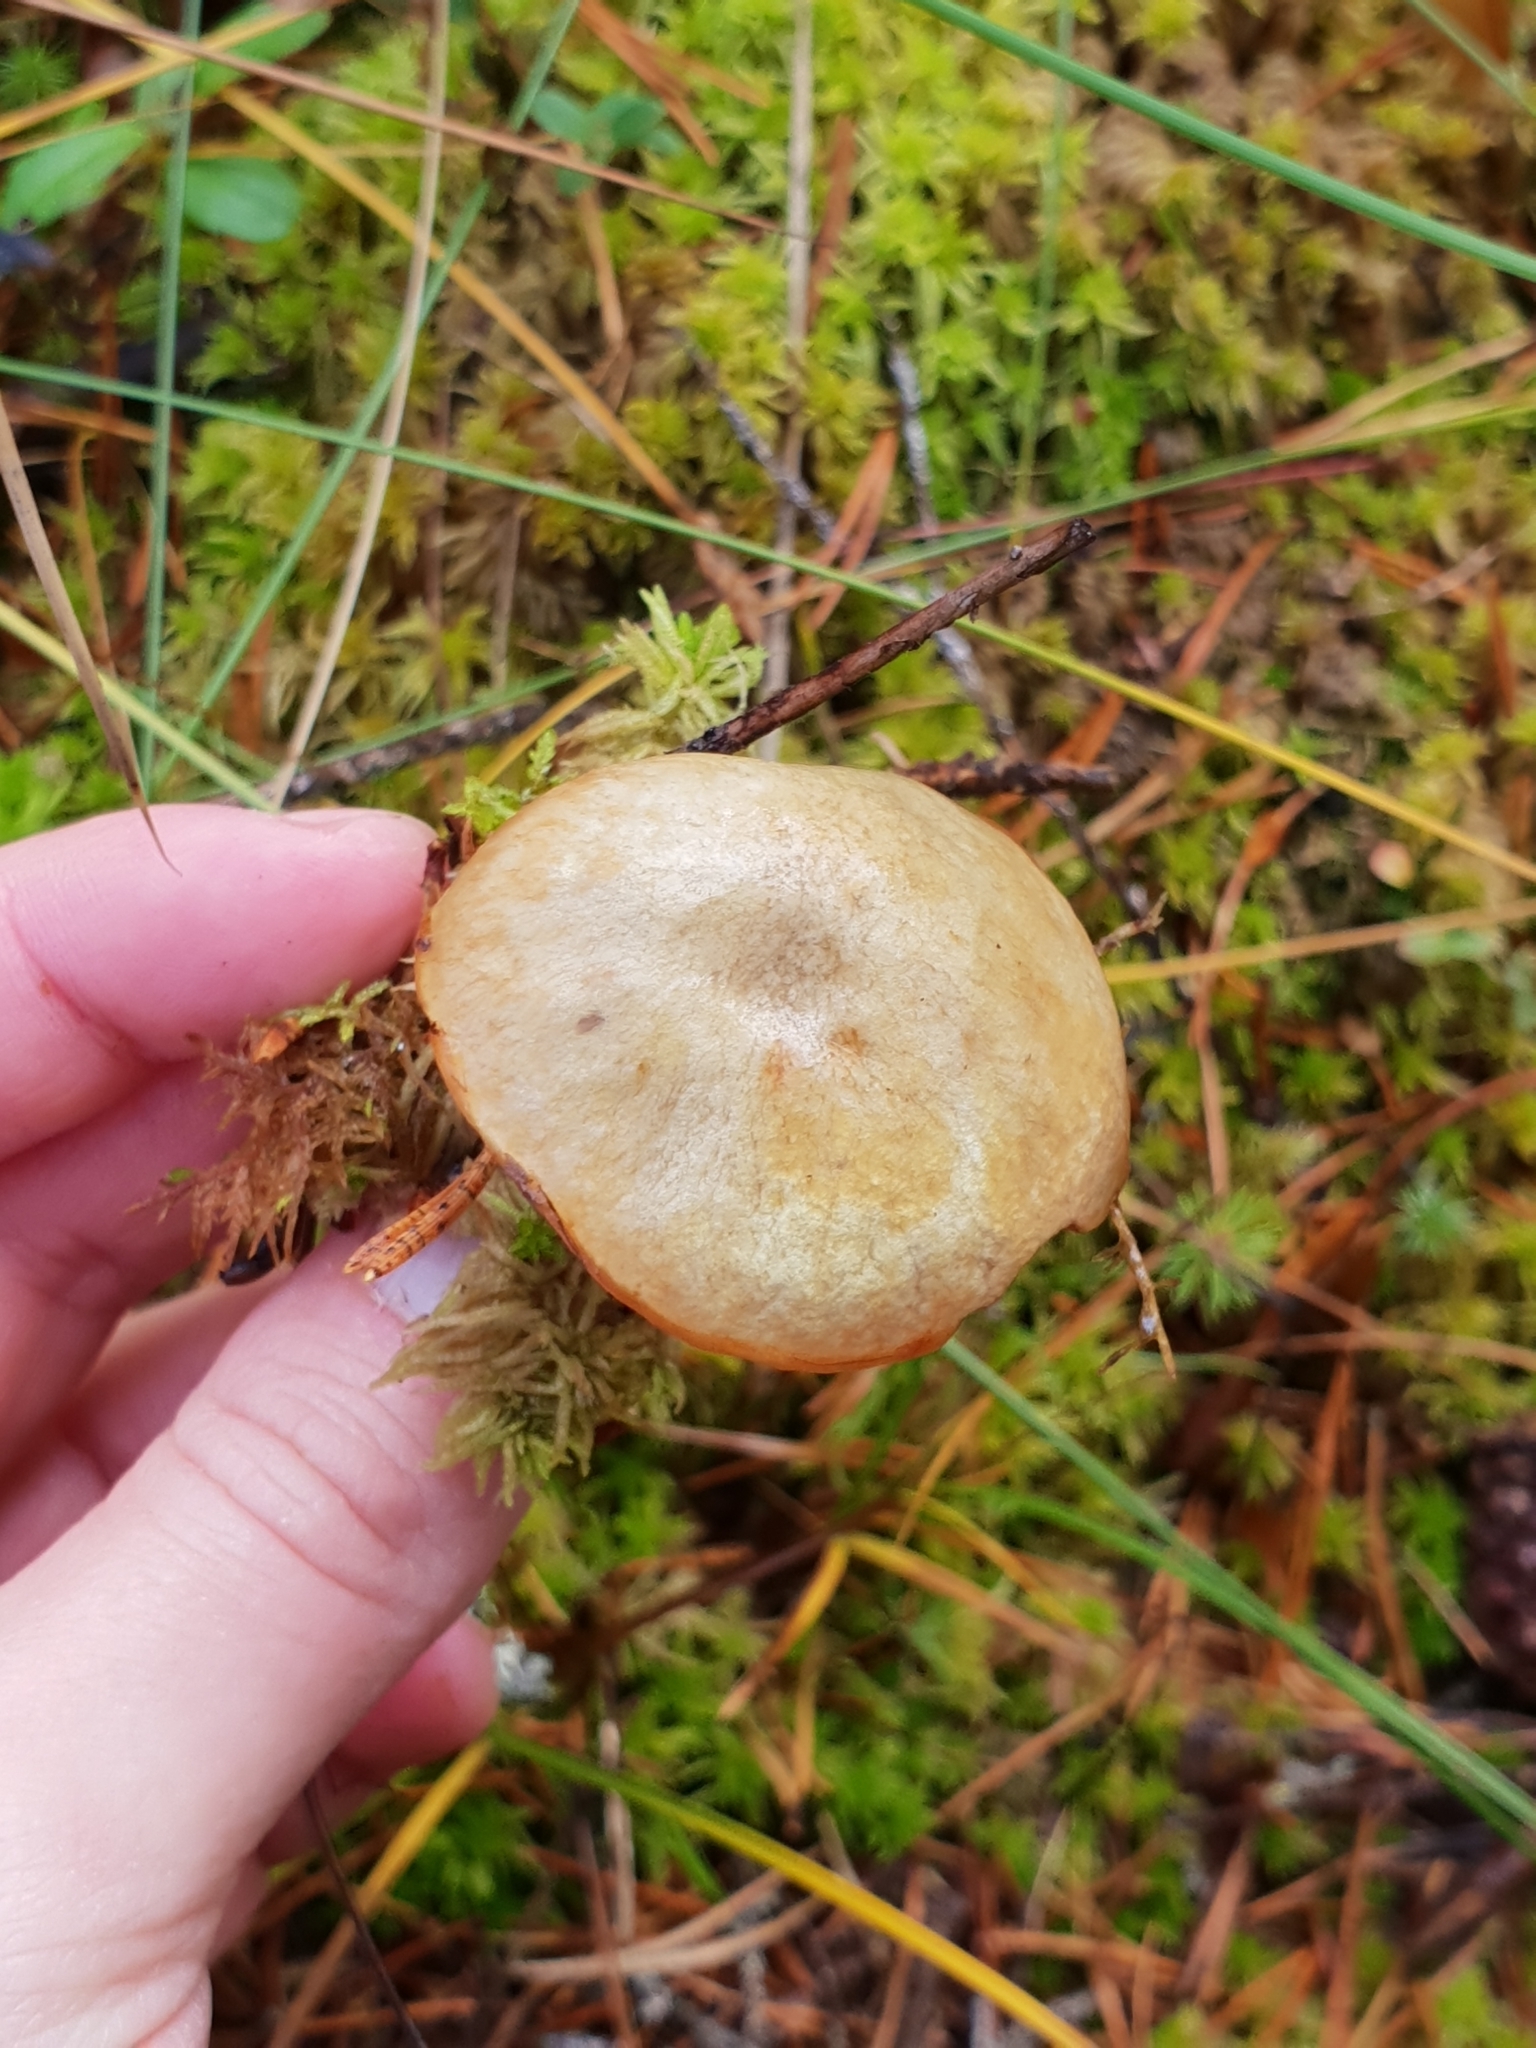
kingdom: Fungi
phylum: Basidiomycota
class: Agaricomycetes
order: Boletales
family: Suillaceae
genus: Suillus
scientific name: Suillus bovinus
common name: Bovine bolete
